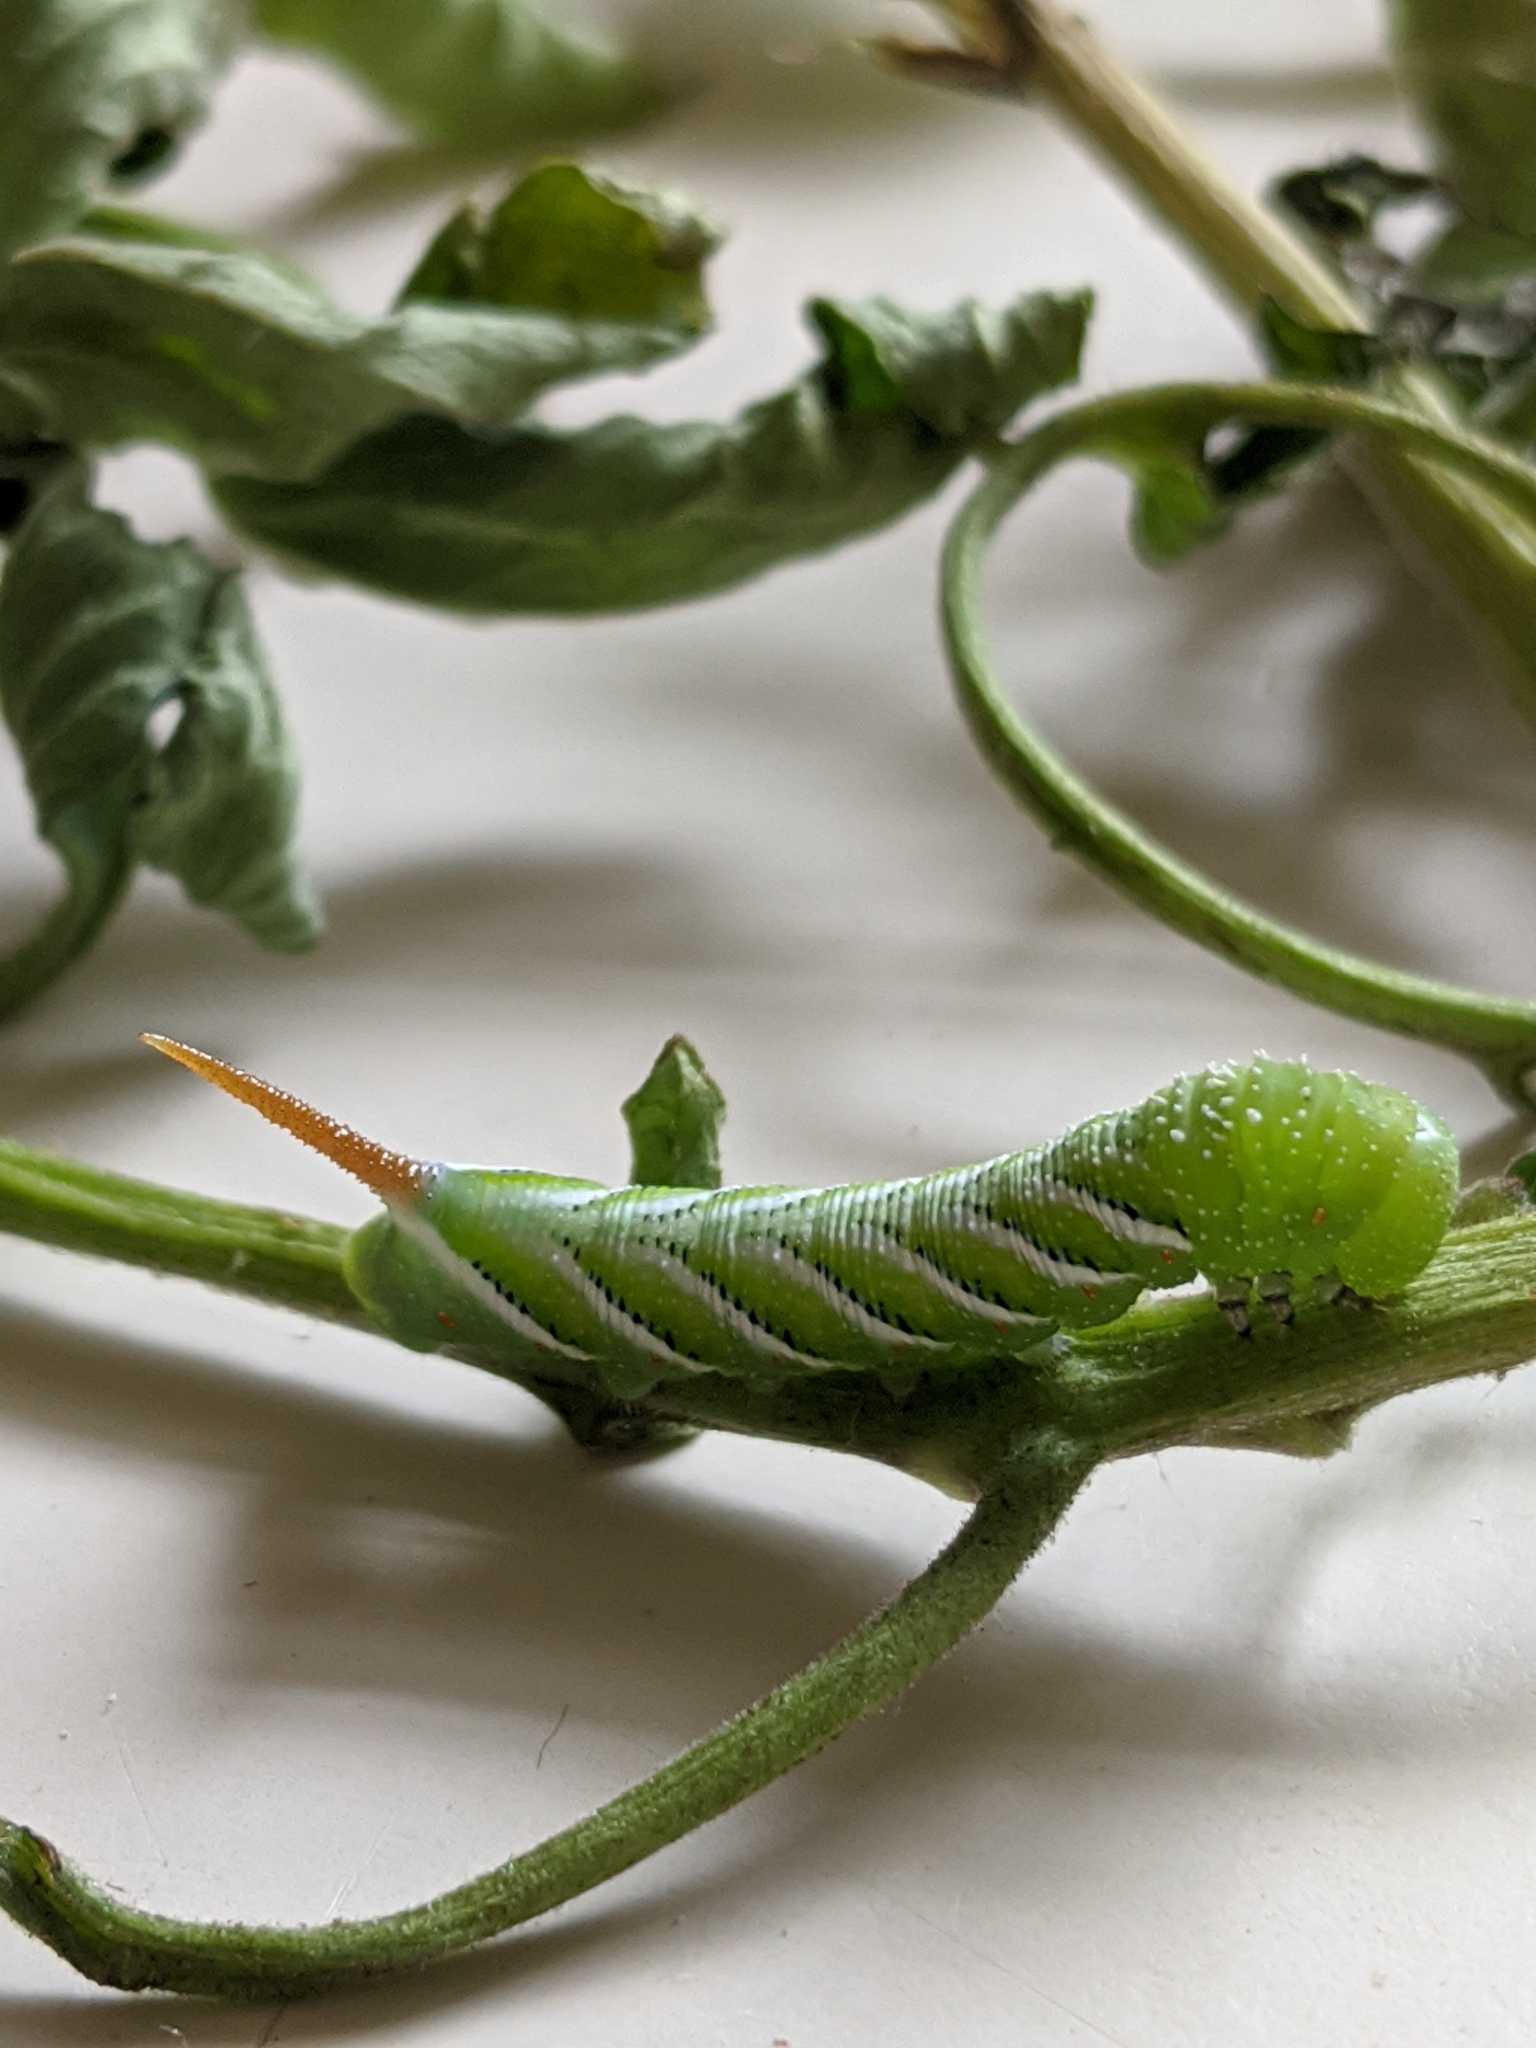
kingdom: Animalia
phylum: Arthropoda
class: Insecta
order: Lepidoptera
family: Sphingidae
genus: Manduca
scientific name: Manduca sexta
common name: Carolina sphinx
